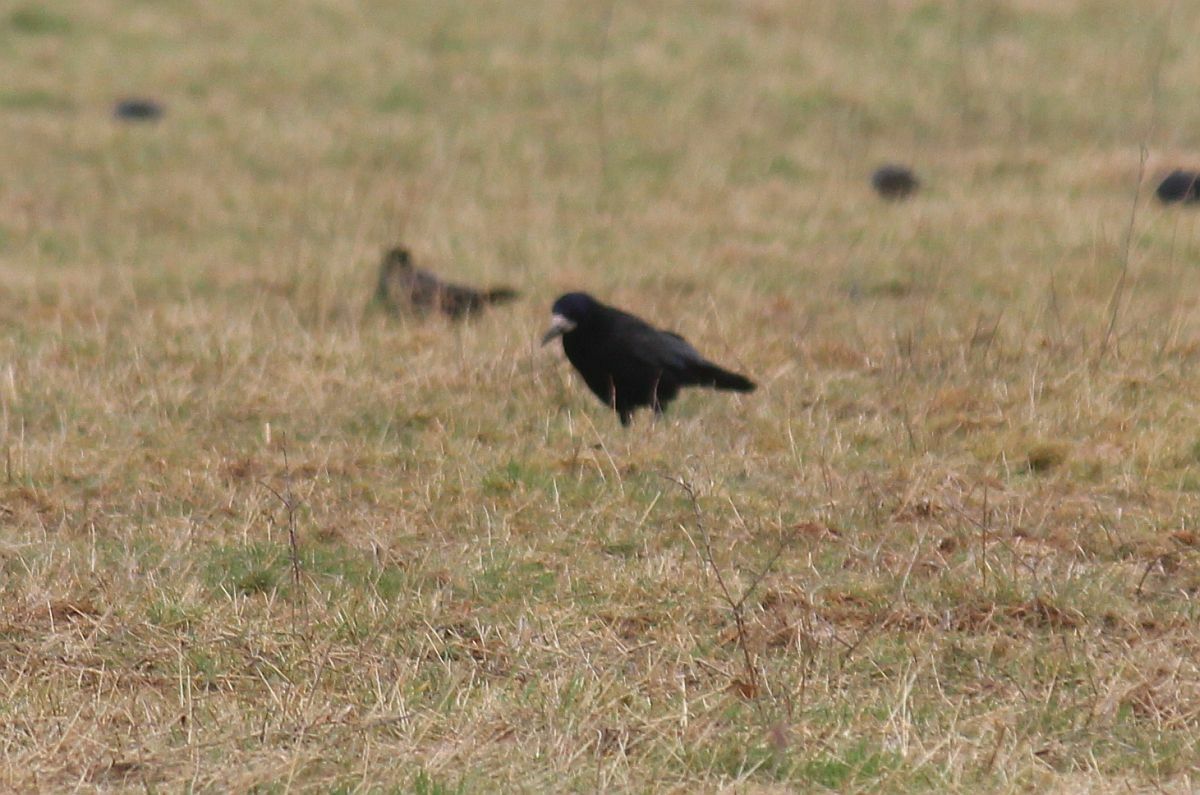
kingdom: Animalia
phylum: Chordata
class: Aves
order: Passeriformes
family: Corvidae
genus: Corvus
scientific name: Corvus frugilegus
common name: Rook
